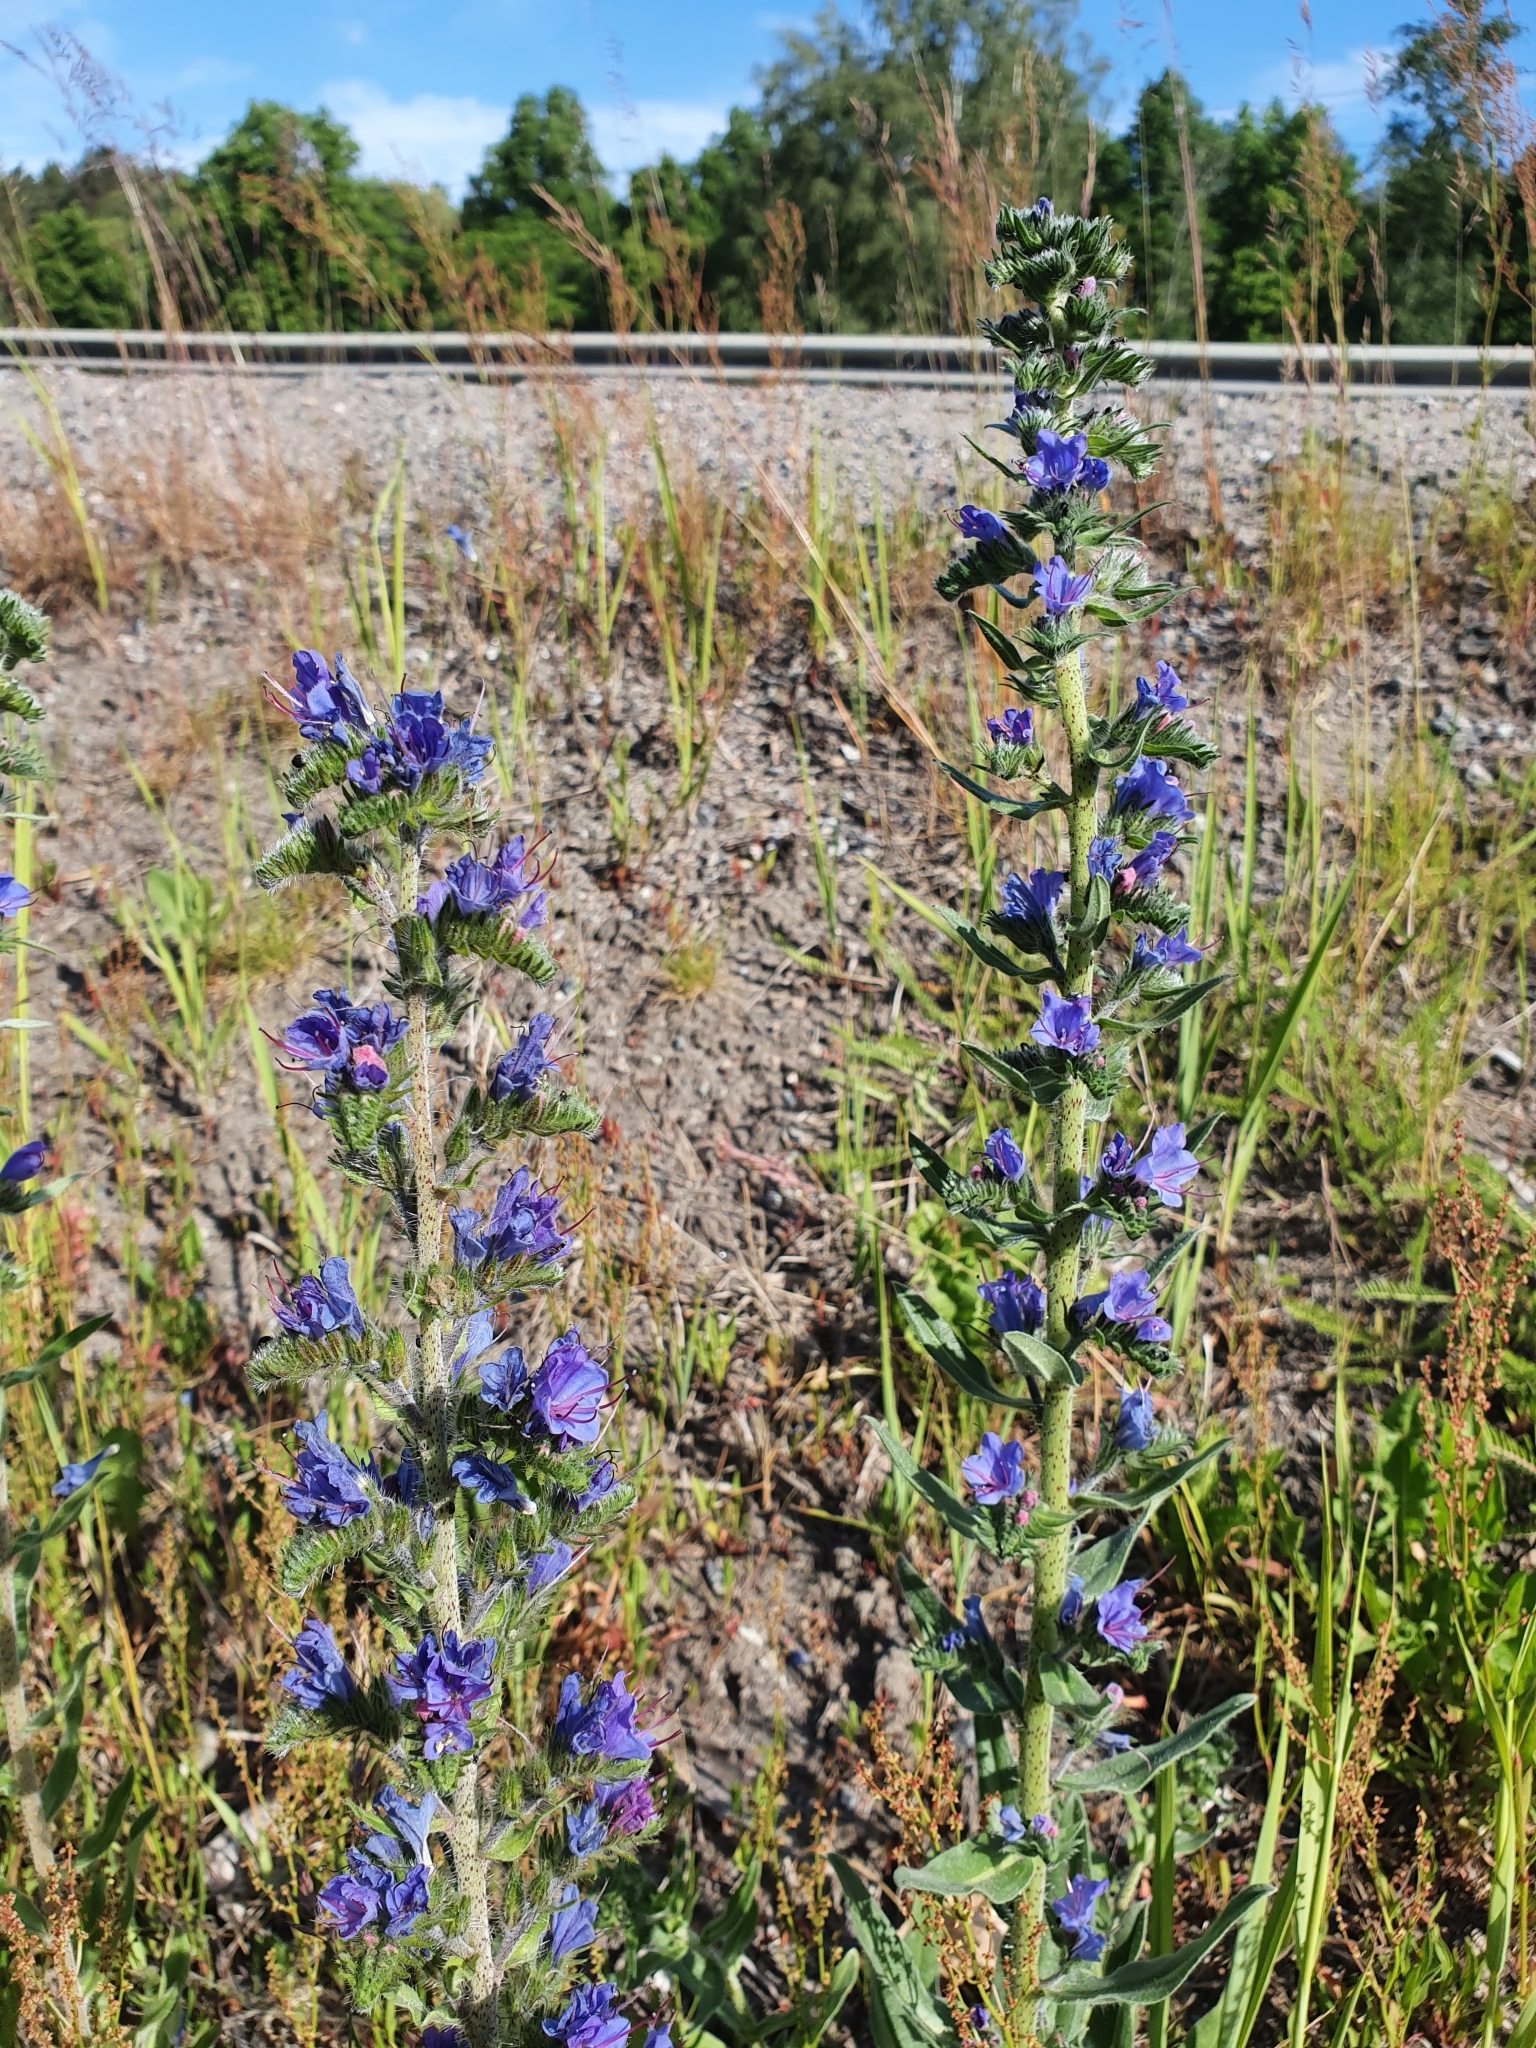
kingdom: Plantae
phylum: Tracheophyta
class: Magnoliopsida
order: Boraginales
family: Boraginaceae
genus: Echium
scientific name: Echium vulgare
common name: Common viper's bugloss
